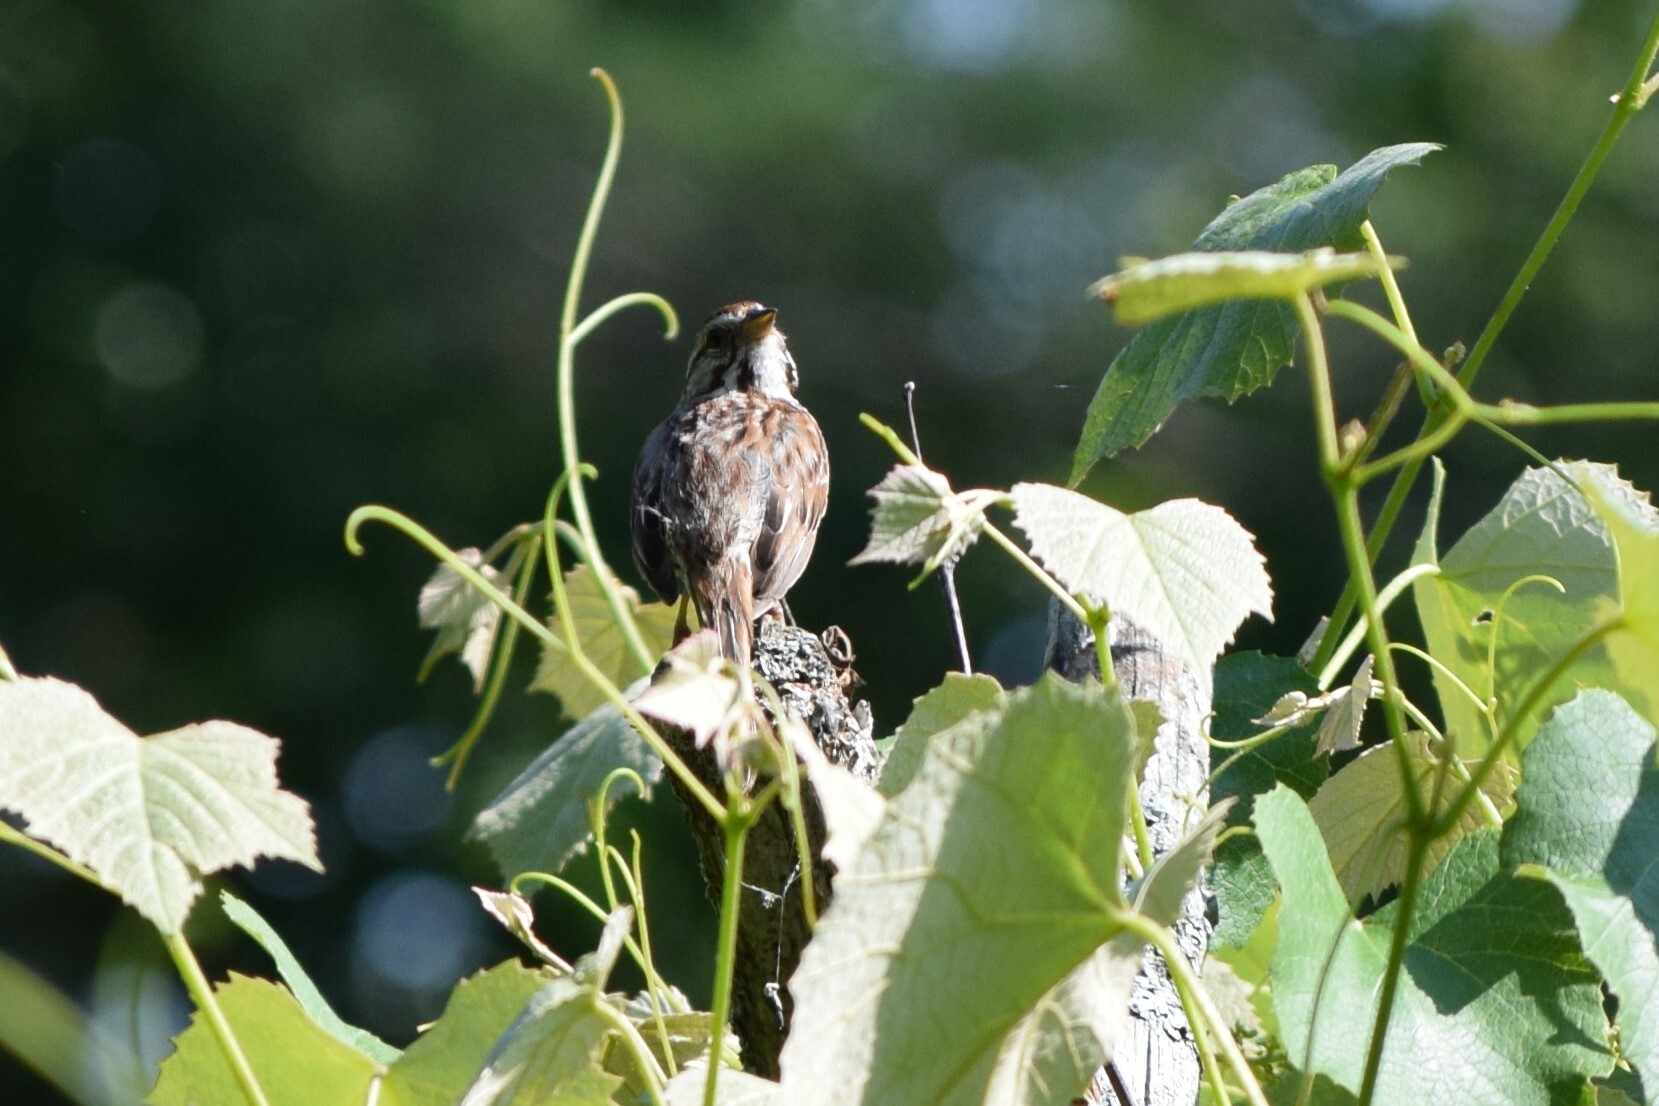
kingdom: Animalia
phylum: Chordata
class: Aves
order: Passeriformes
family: Passerellidae
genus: Melospiza
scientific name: Melospiza melodia
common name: Song sparrow
